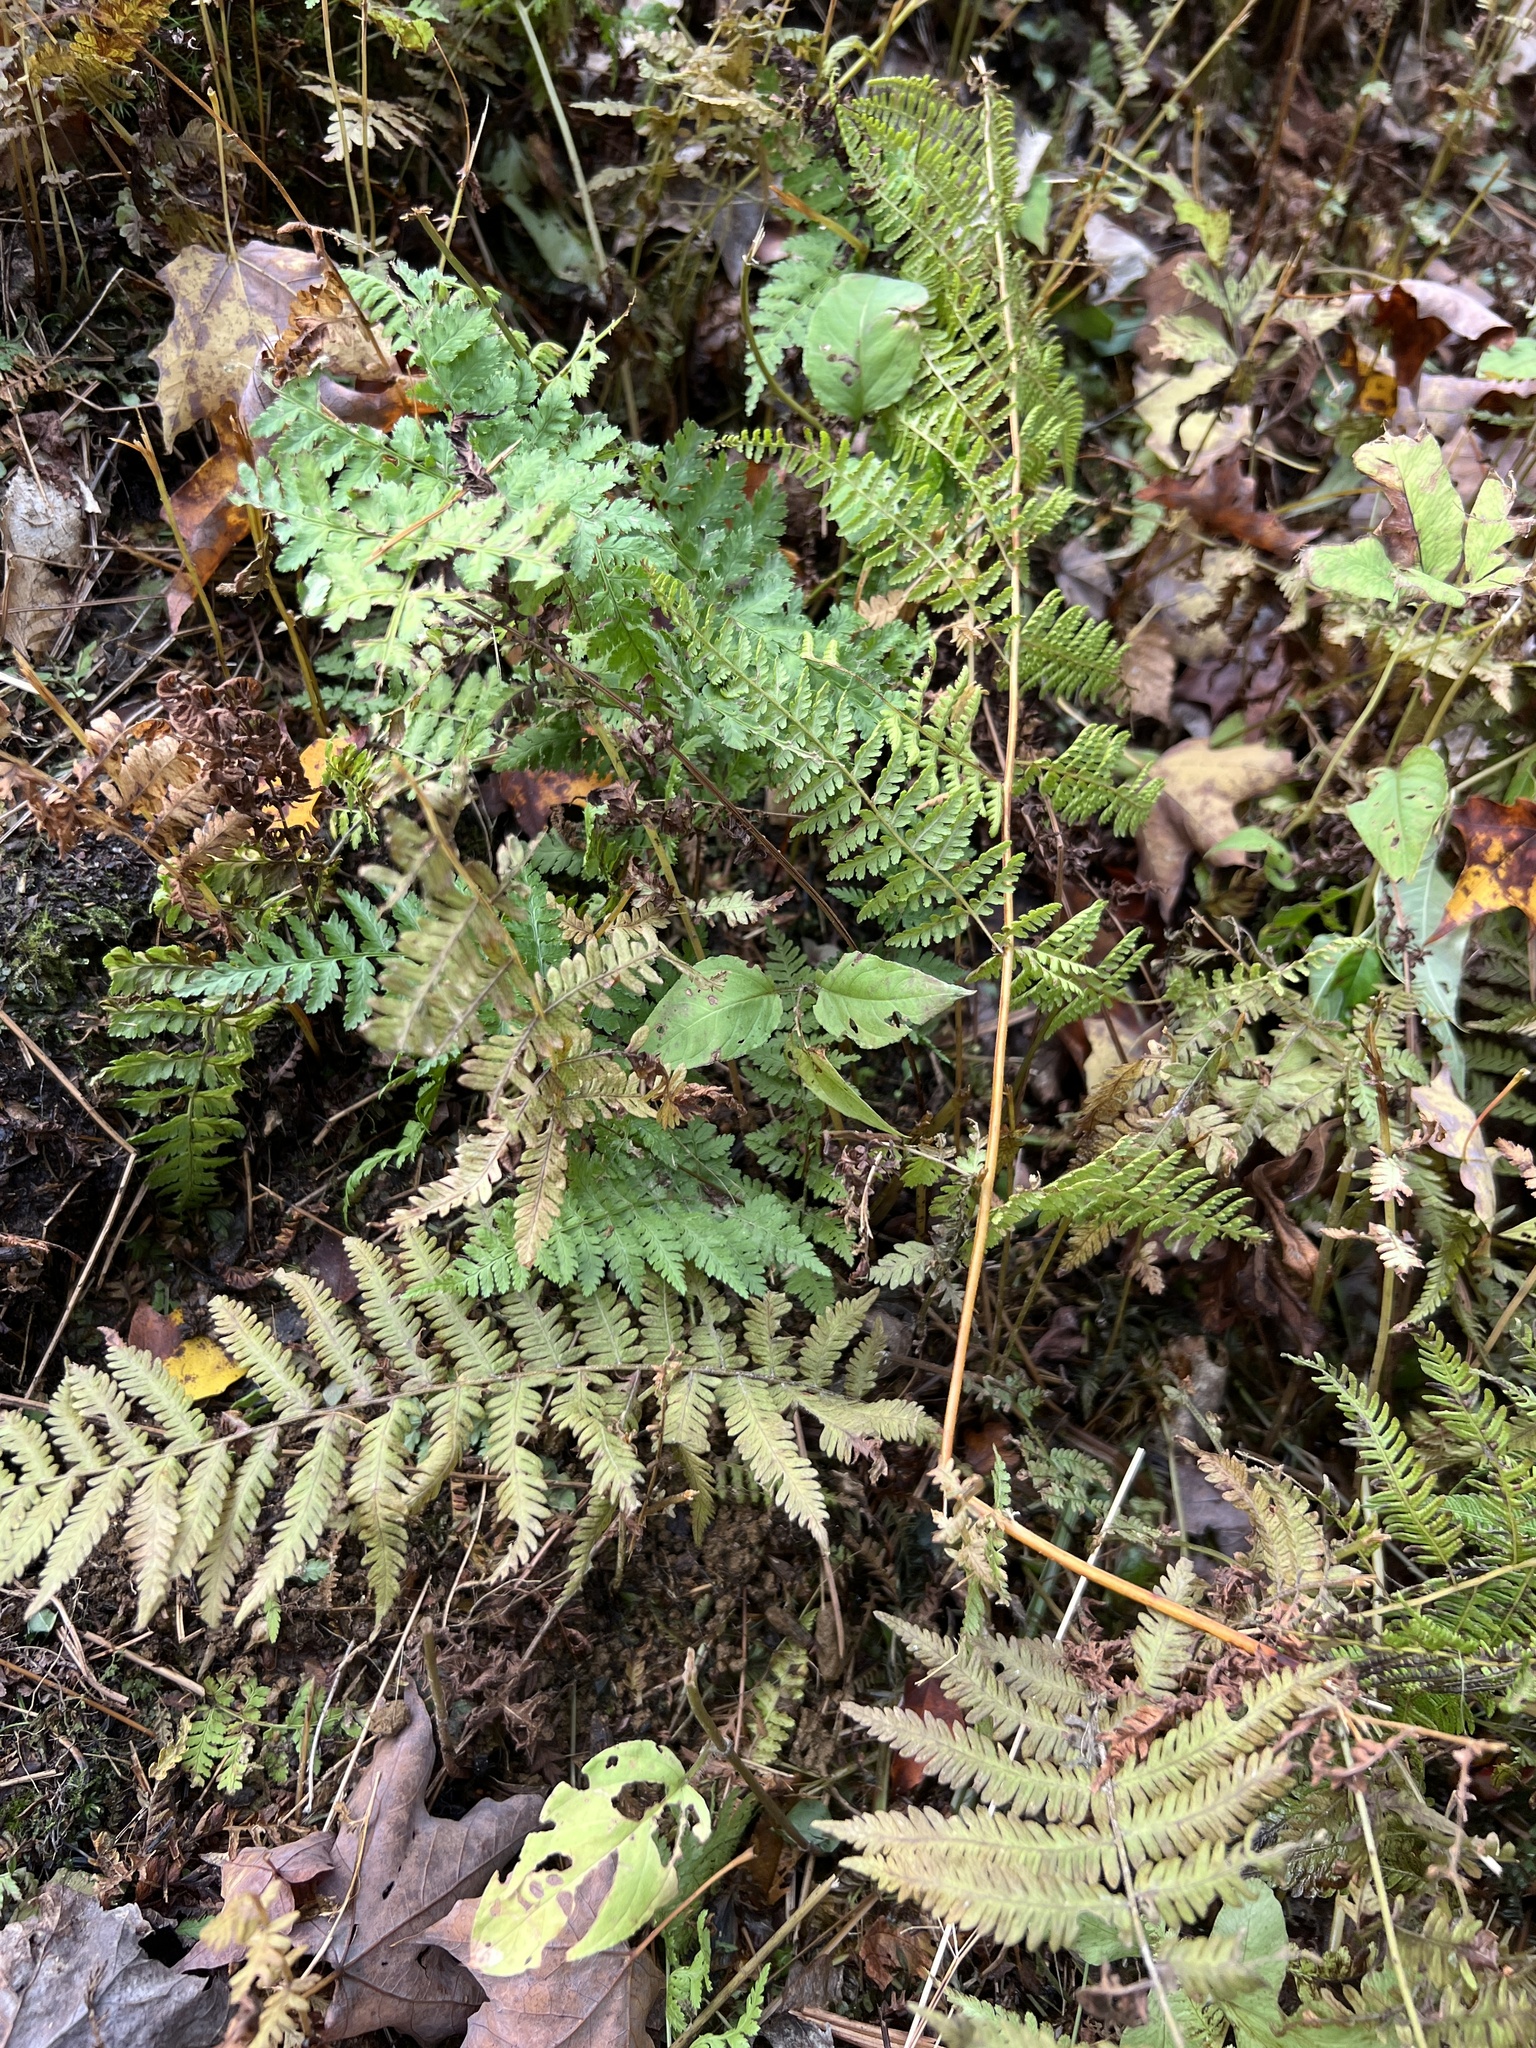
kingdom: Plantae
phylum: Tracheophyta
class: Polypodiopsida
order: Polypodiales
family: Thelypteridaceae
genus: Amauropelta
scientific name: Amauropelta noveboracensis
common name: New york fern
